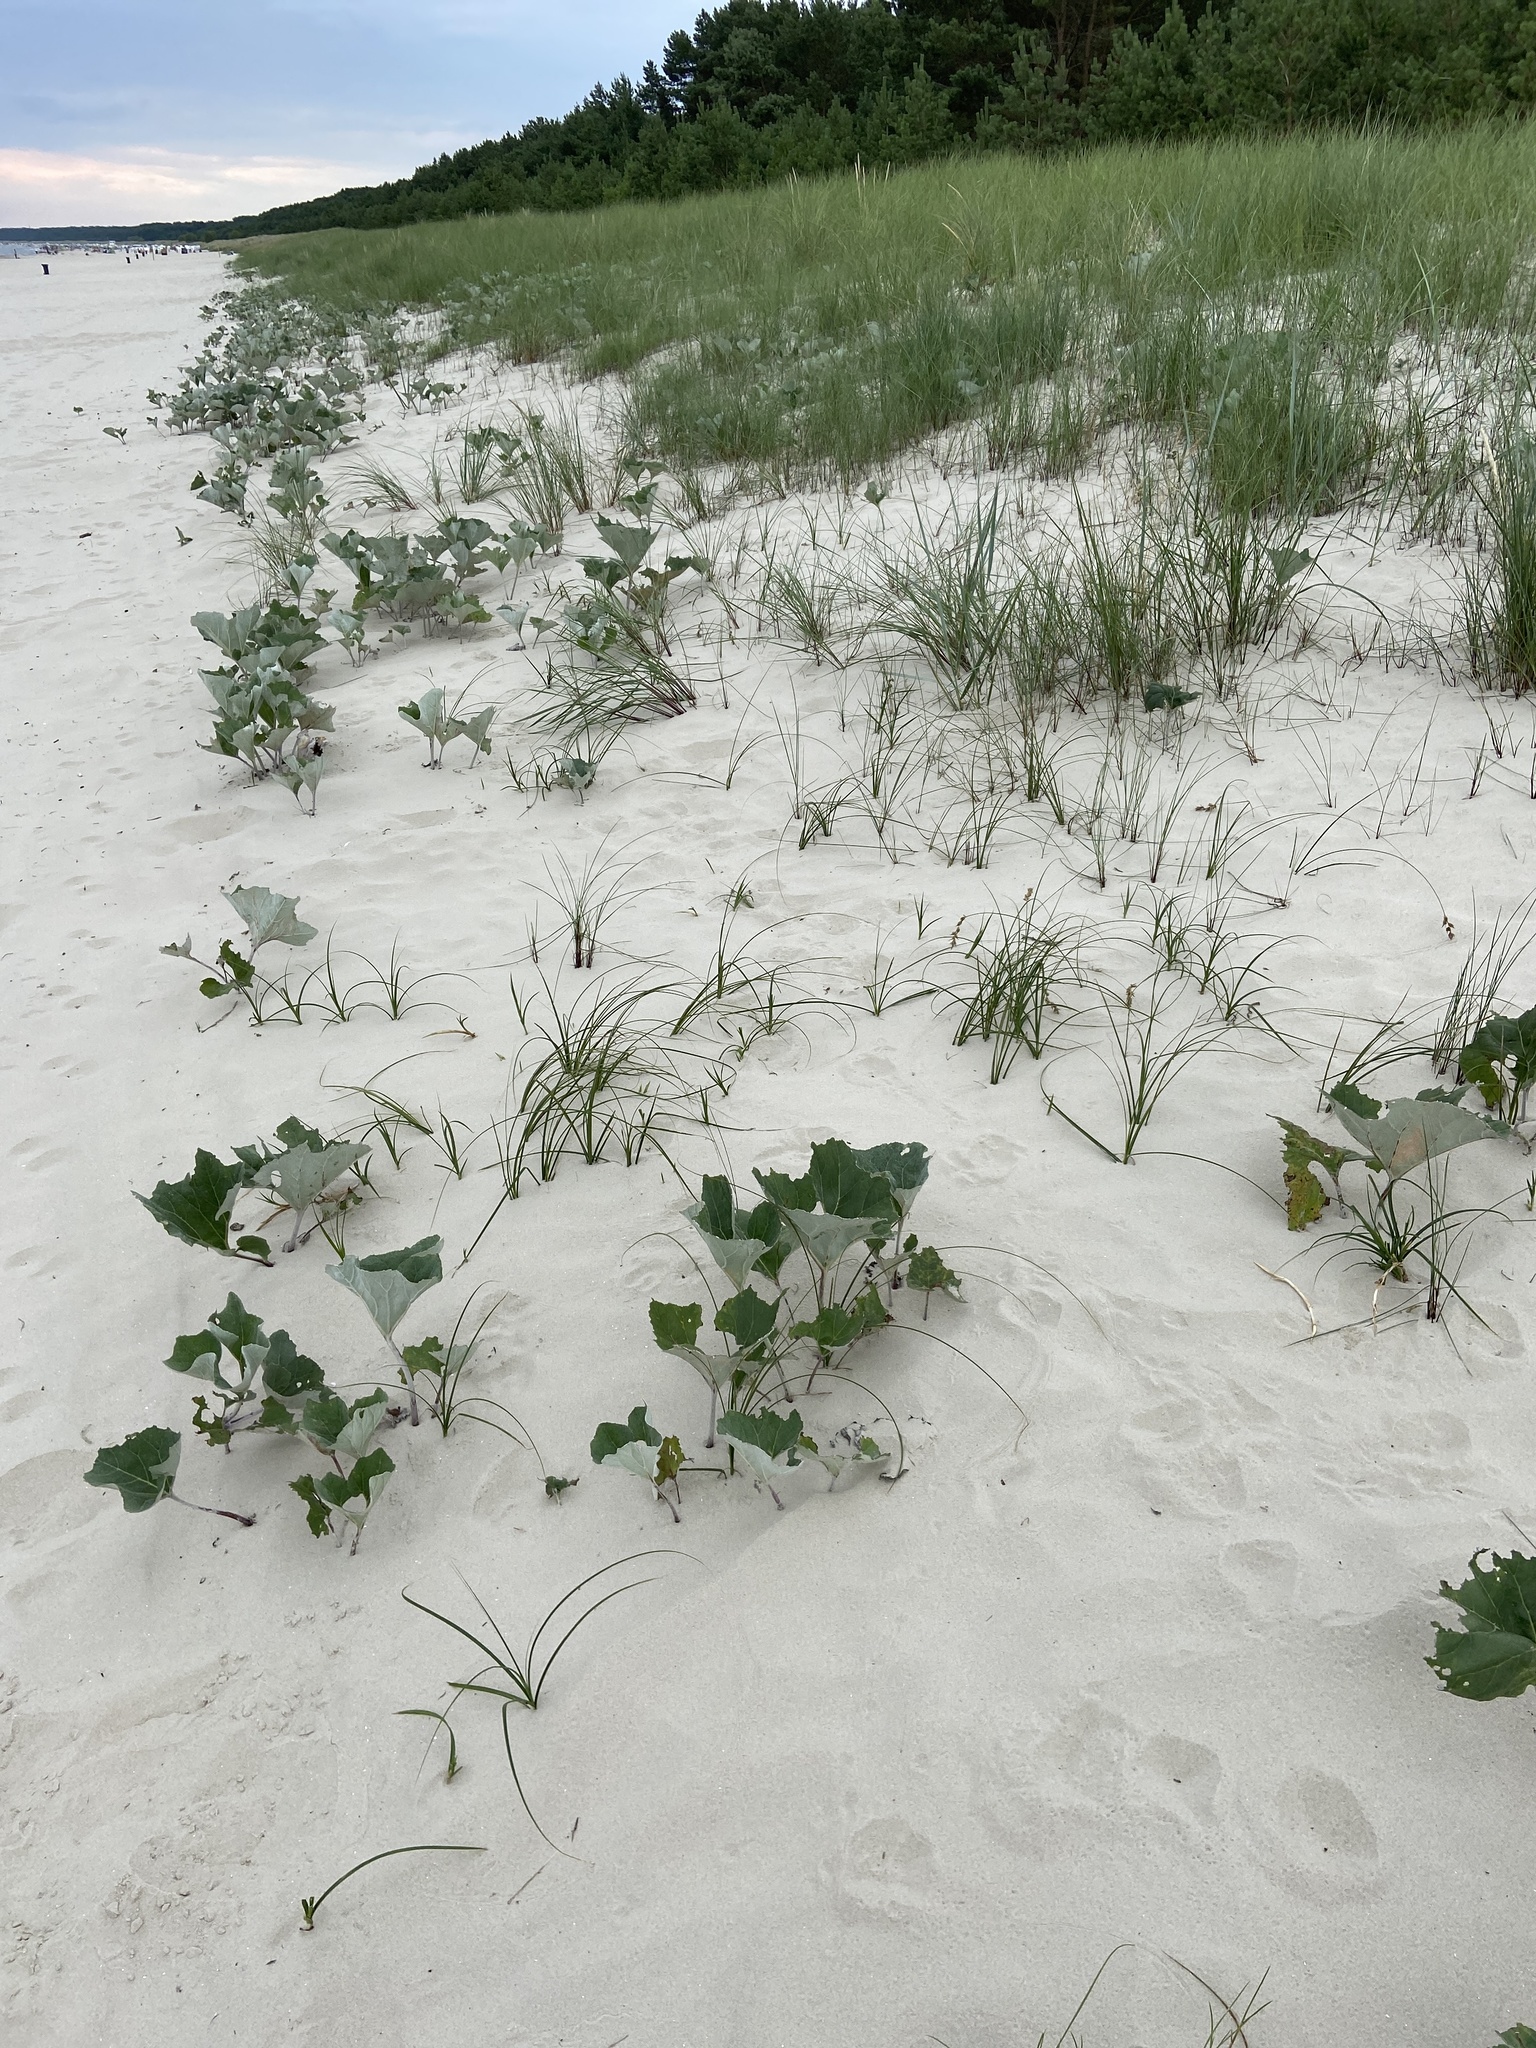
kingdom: Plantae
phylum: Tracheophyta
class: Magnoliopsida
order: Asterales
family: Asteraceae
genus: Petasites
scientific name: Petasites spurius
